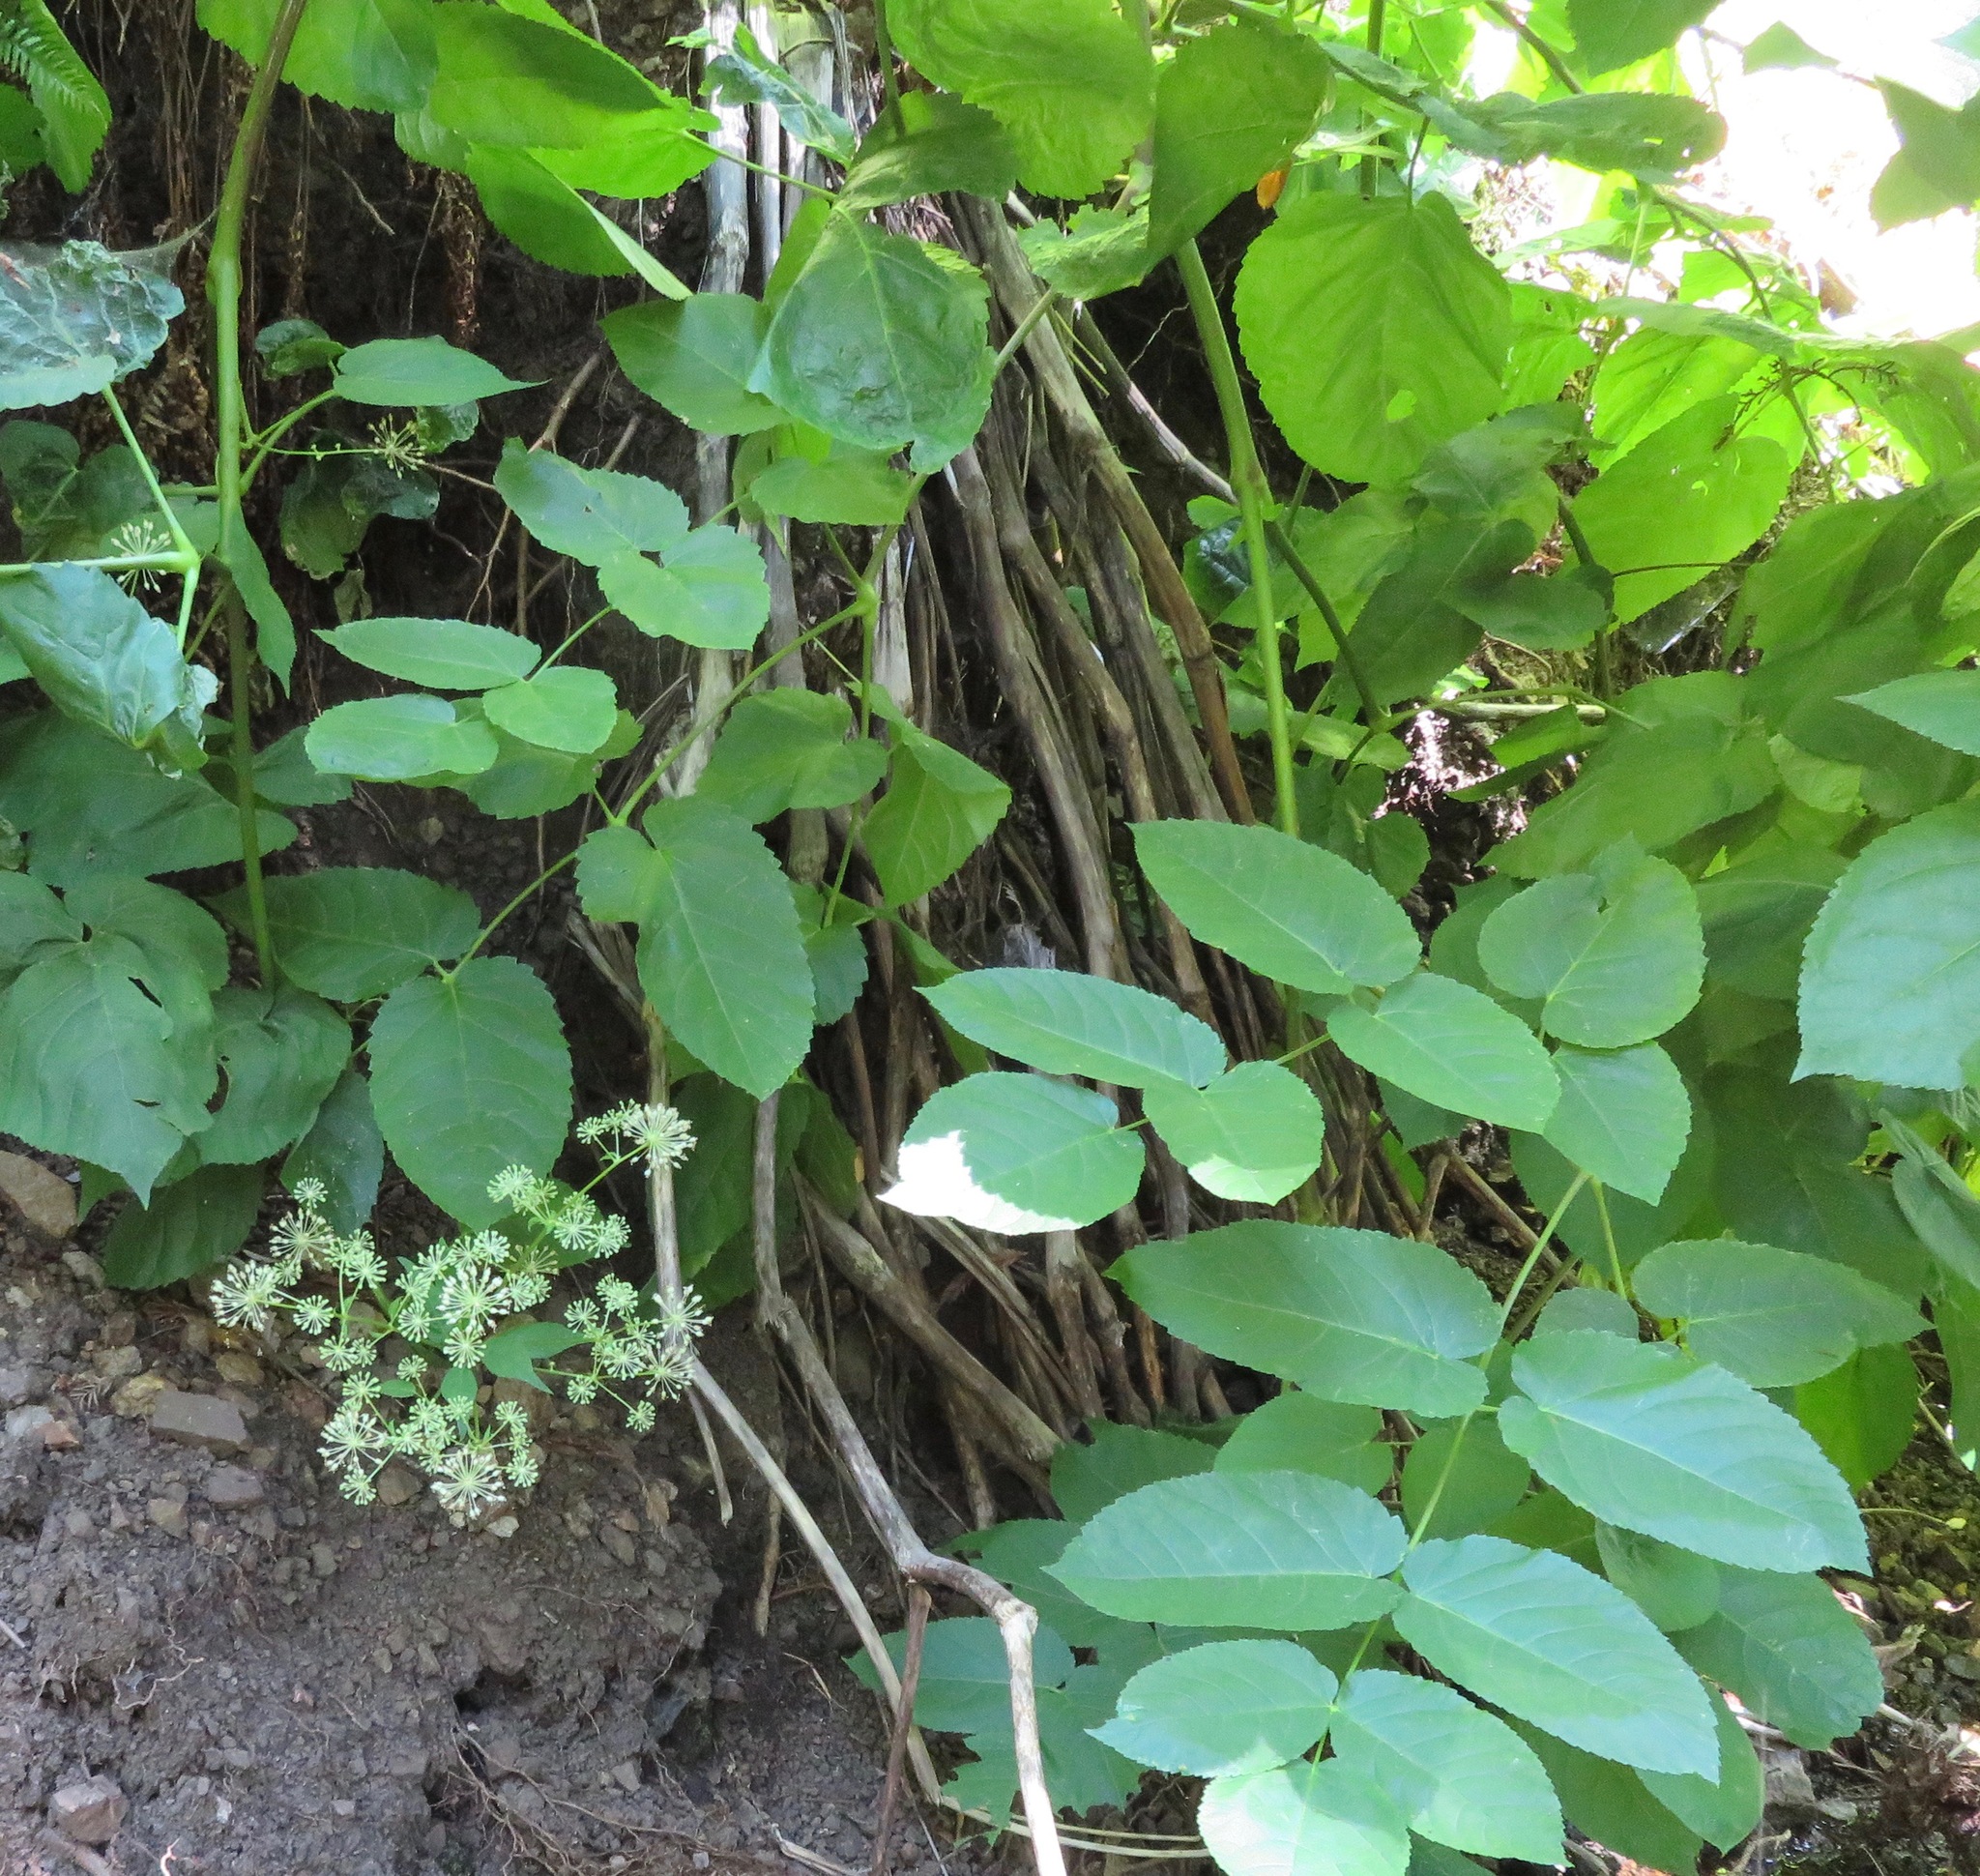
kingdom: Plantae
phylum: Tracheophyta
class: Magnoliopsida
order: Apiales
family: Araliaceae
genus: Aralia
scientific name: Aralia californica
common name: California-ginseng
